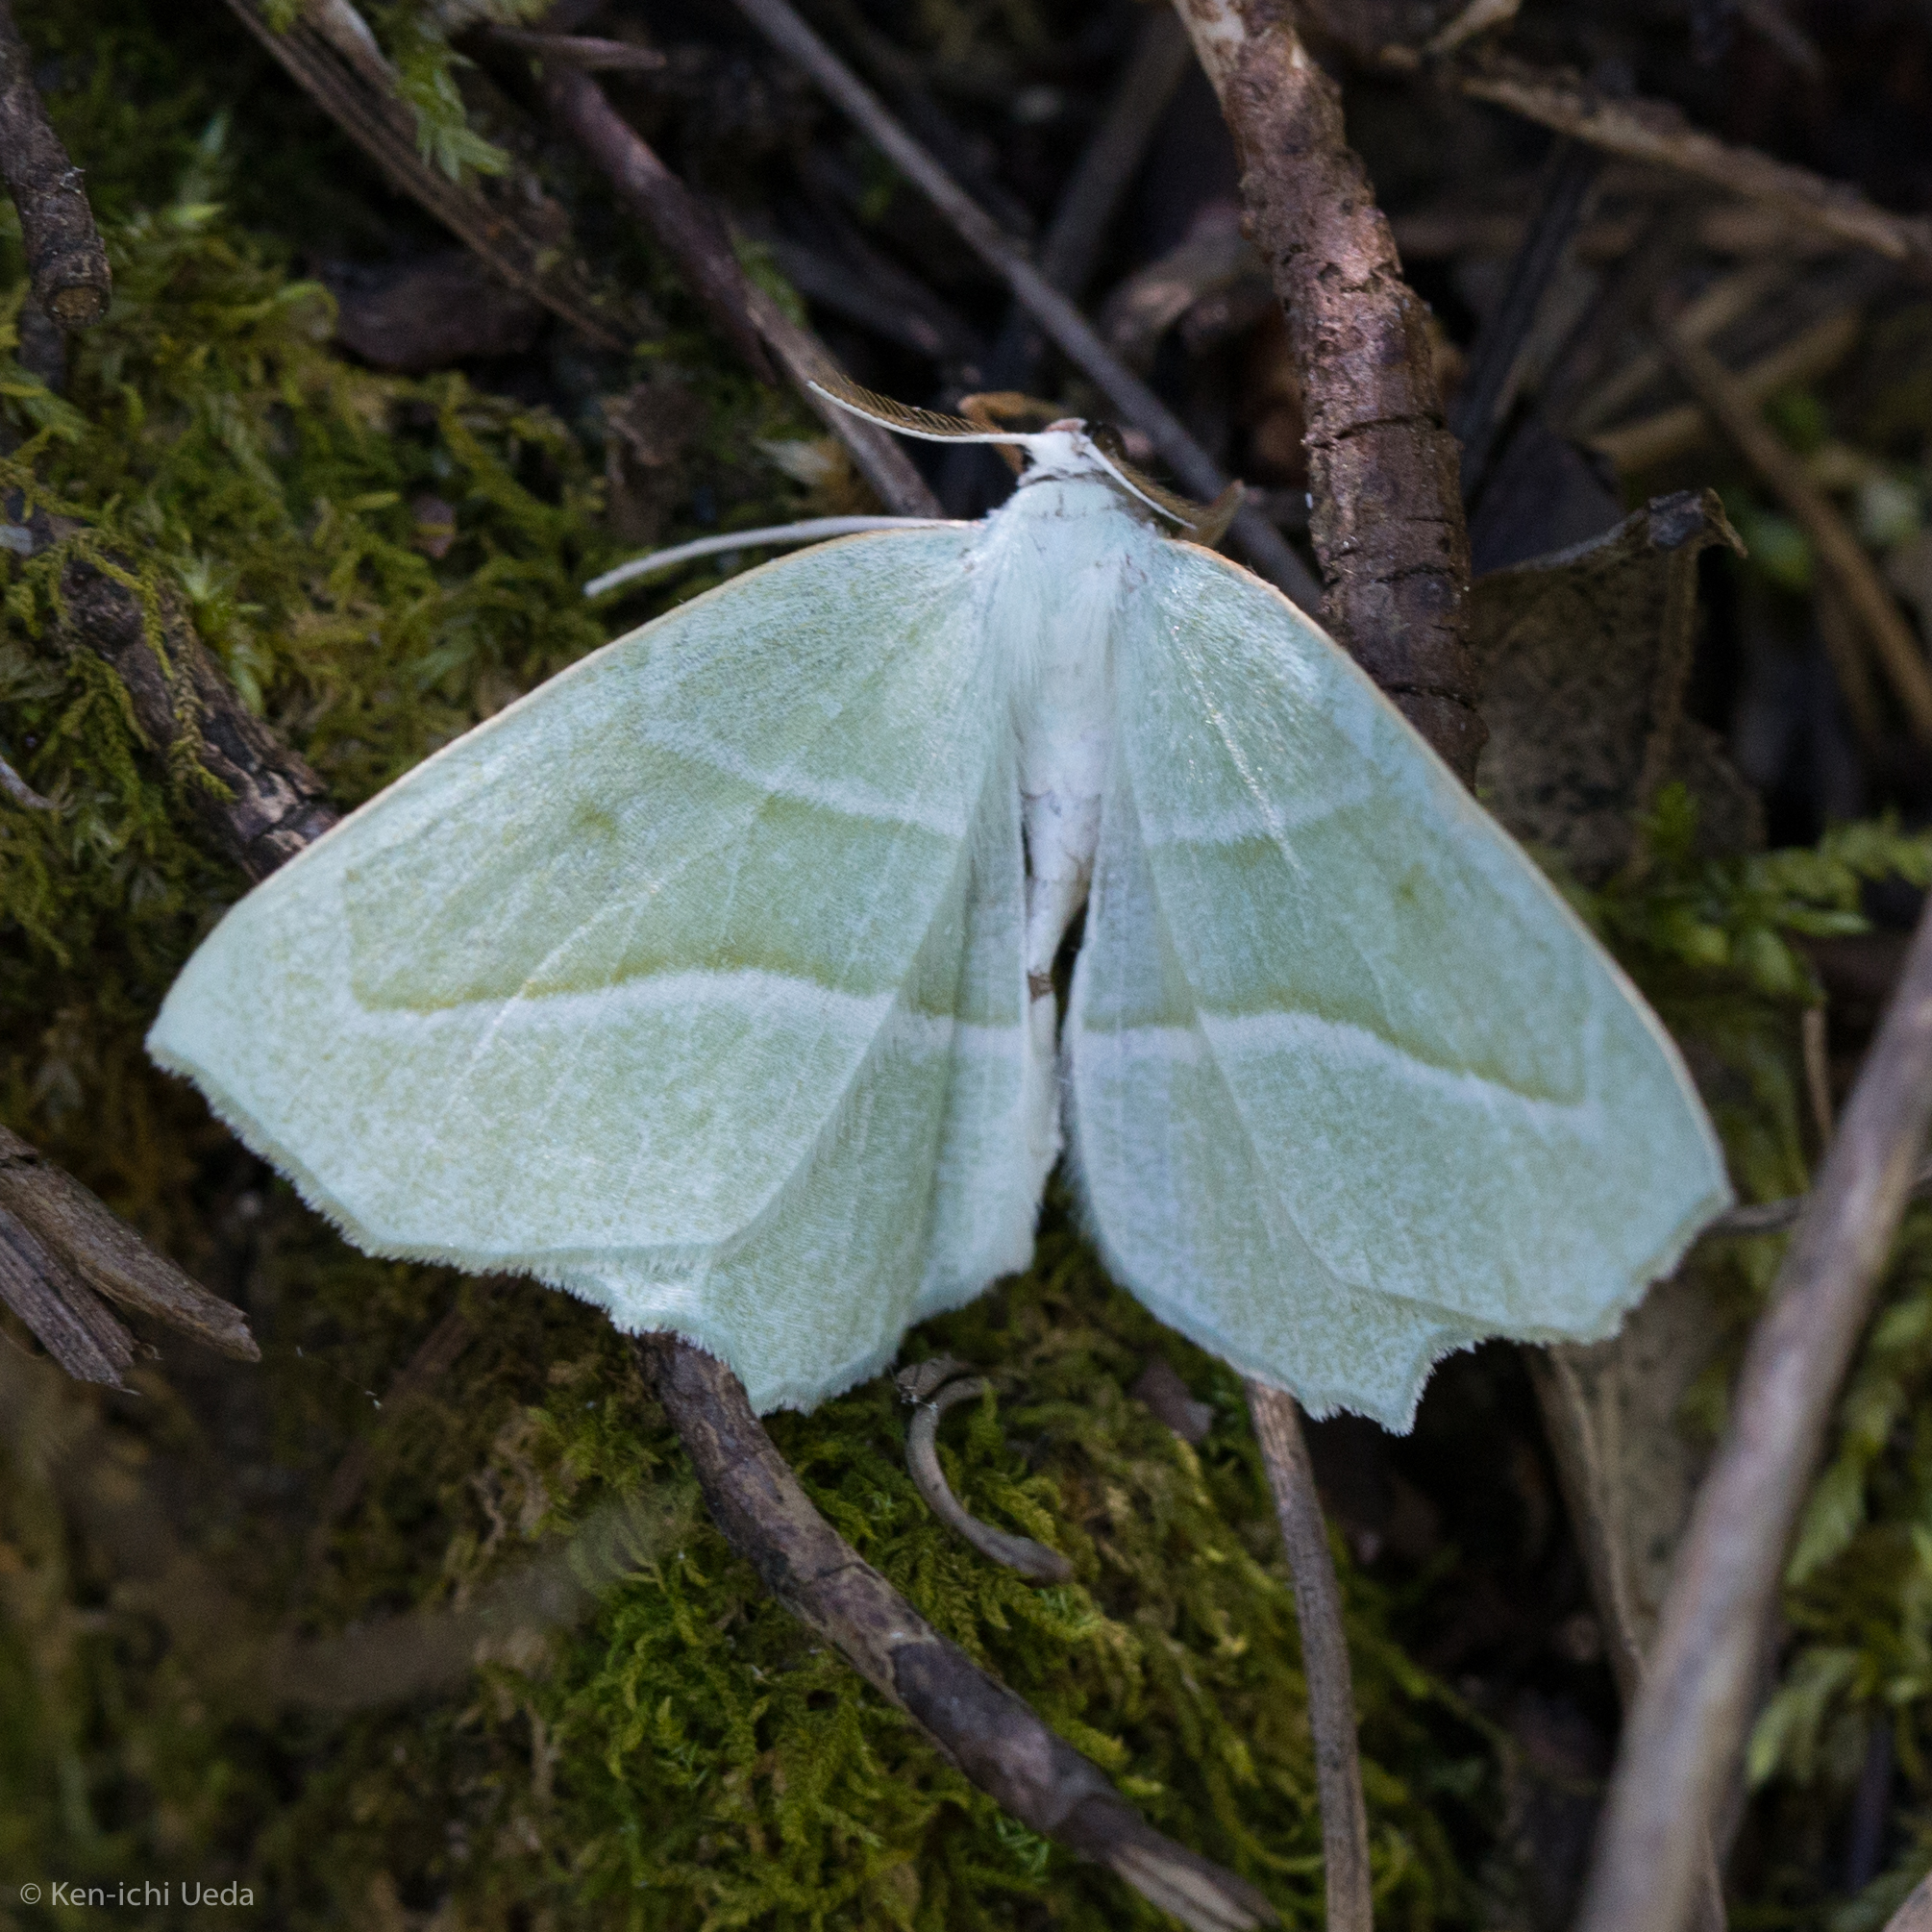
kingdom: Animalia
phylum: Arthropoda
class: Insecta
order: Lepidoptera
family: Geometridae
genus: Campaea
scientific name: Campaea perlata
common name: Fringed looper
